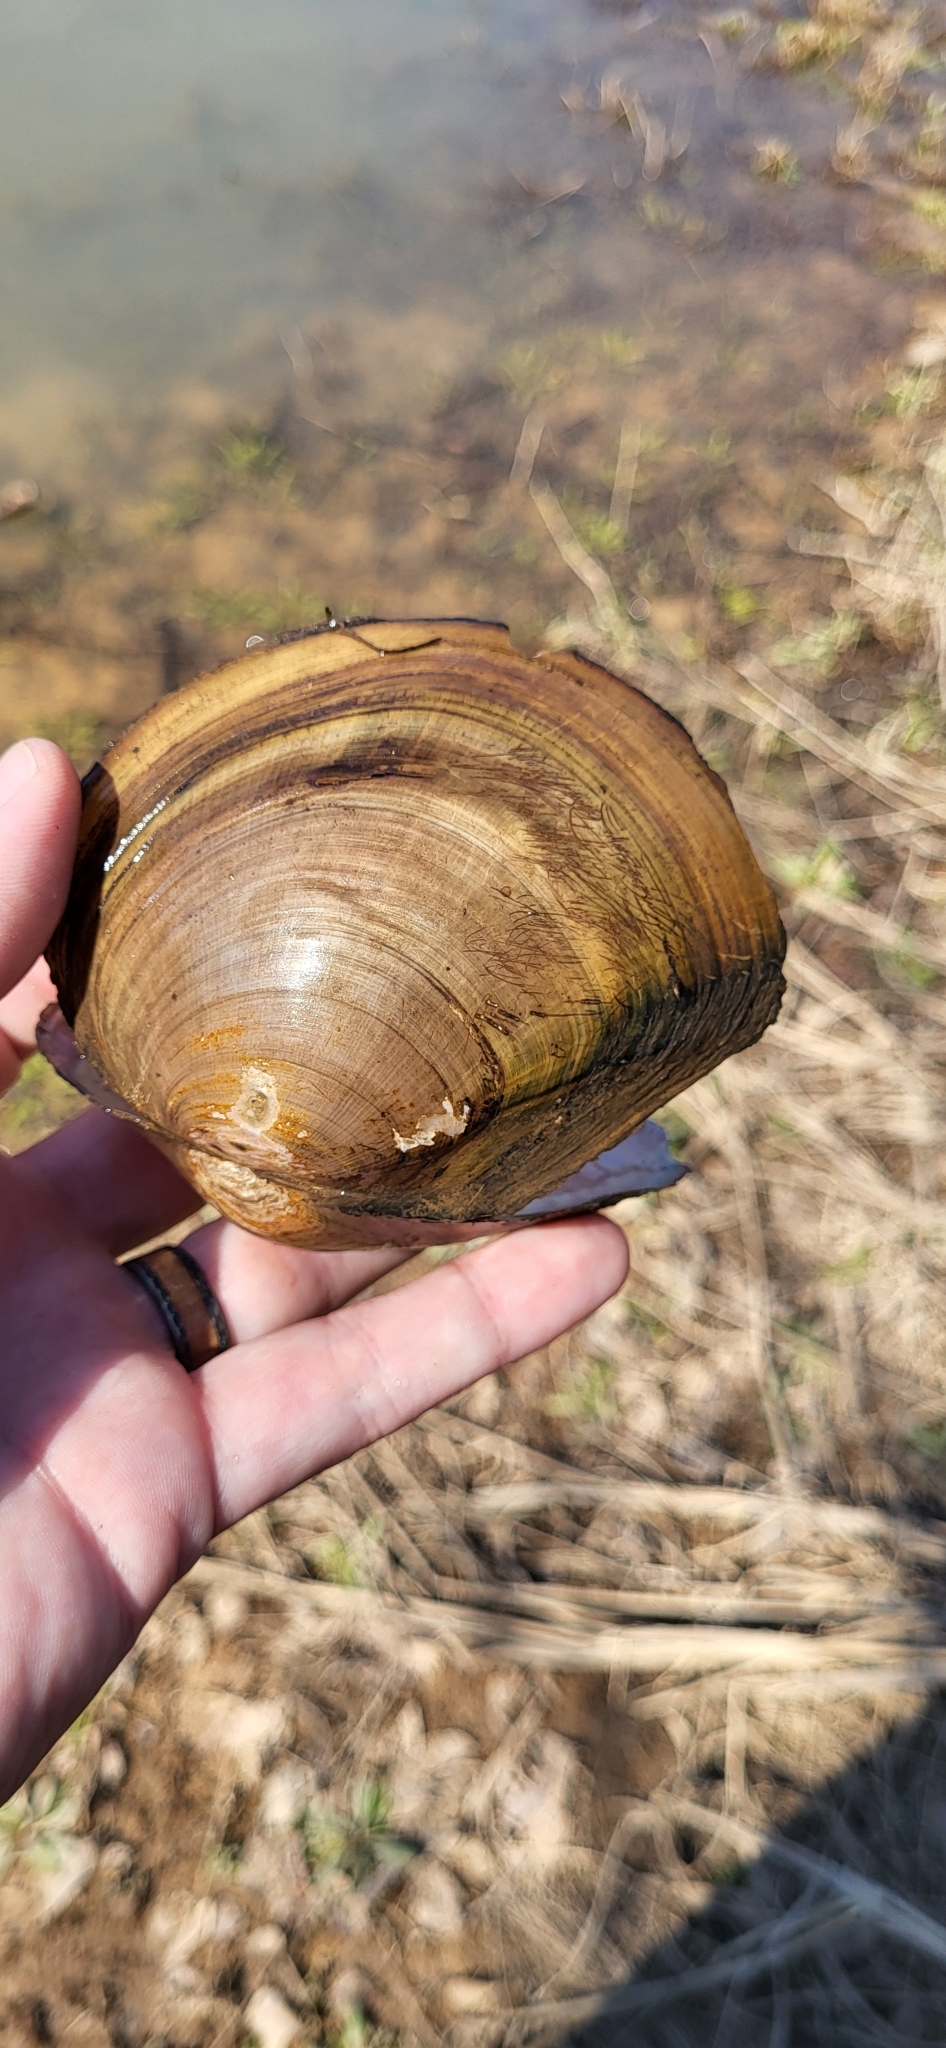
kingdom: Animalia
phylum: Mollusca
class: Bivalvia
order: Unionida
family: Unionidae
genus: Utterbackiana
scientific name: Utterbackiana suborbiculata
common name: Flat floater
